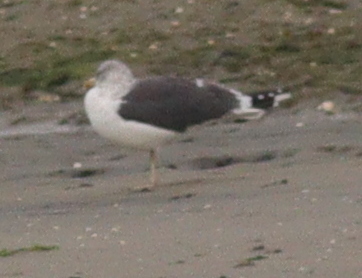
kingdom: Animalia
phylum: Chordata
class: Aves
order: Charadriiformes
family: Laridae
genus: Larus
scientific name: Larus fuscus
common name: Lesser black-backed gull
